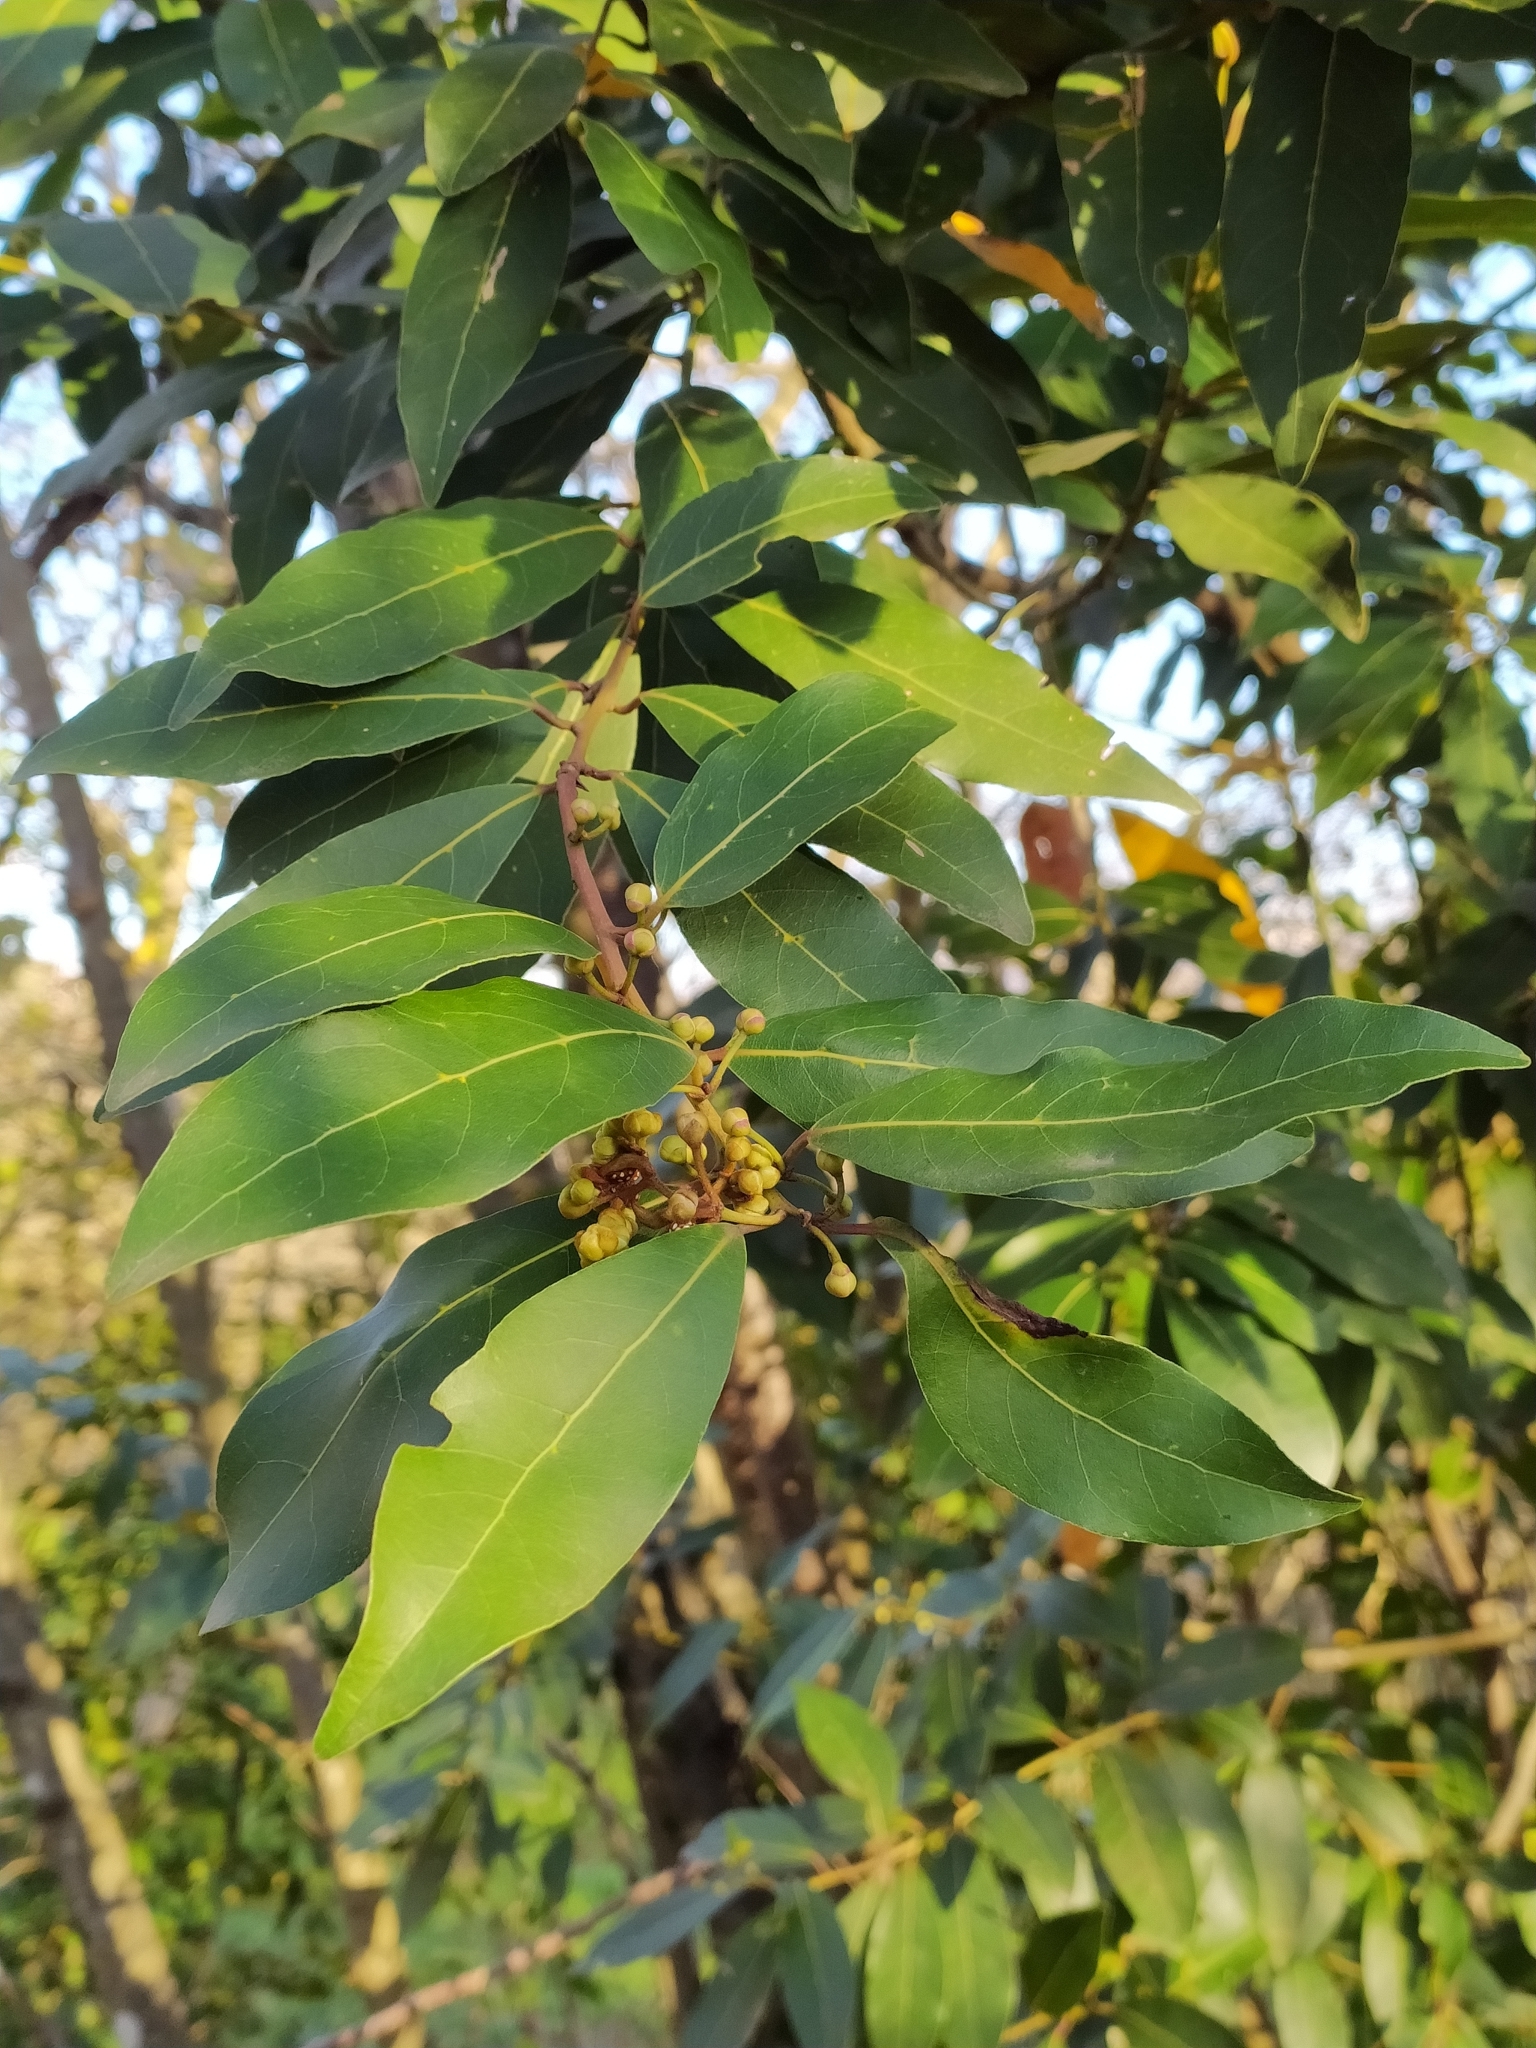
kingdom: Plantae
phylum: Tracheophyta
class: Magnoliopsida
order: Laurales
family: Lauraceae
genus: Laurus
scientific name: Laurus nobilis
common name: Bay
